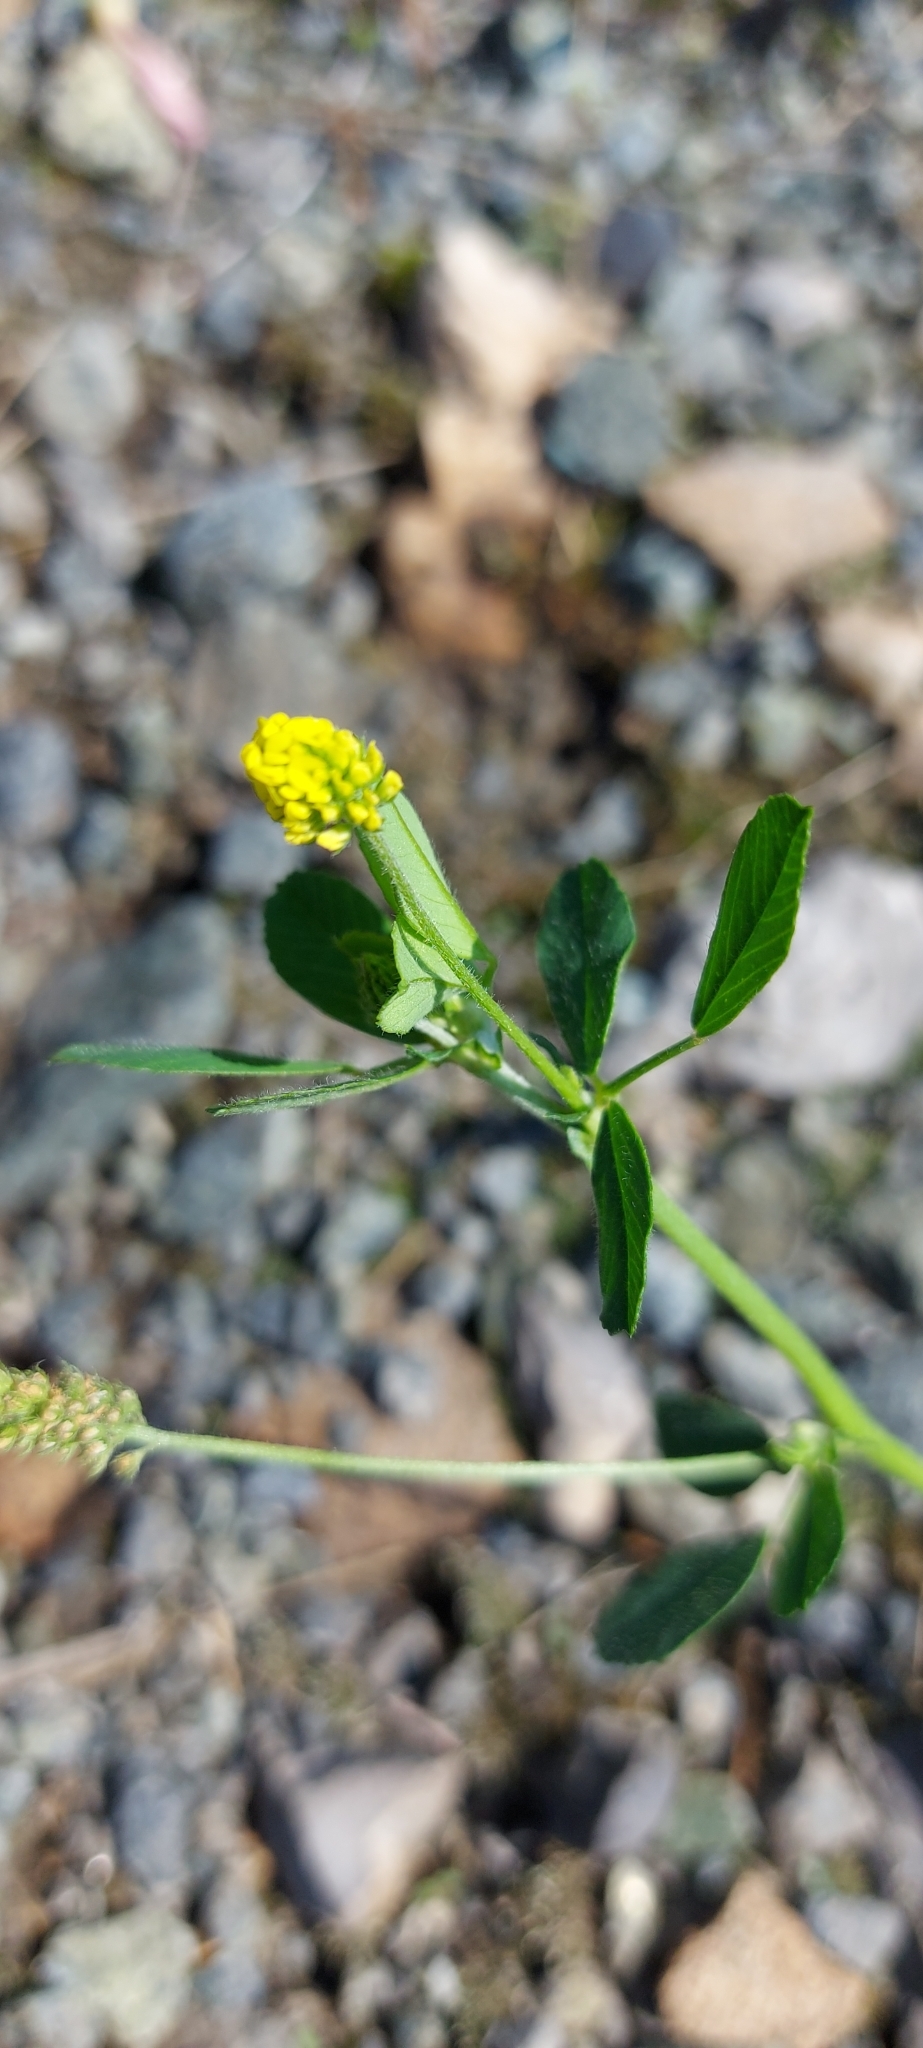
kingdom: Plantae
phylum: Tracheophyta
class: Magnoliopsida
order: Fabales
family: Fabaceae
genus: Medicago
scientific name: Medicago lupulina
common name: Black medick
